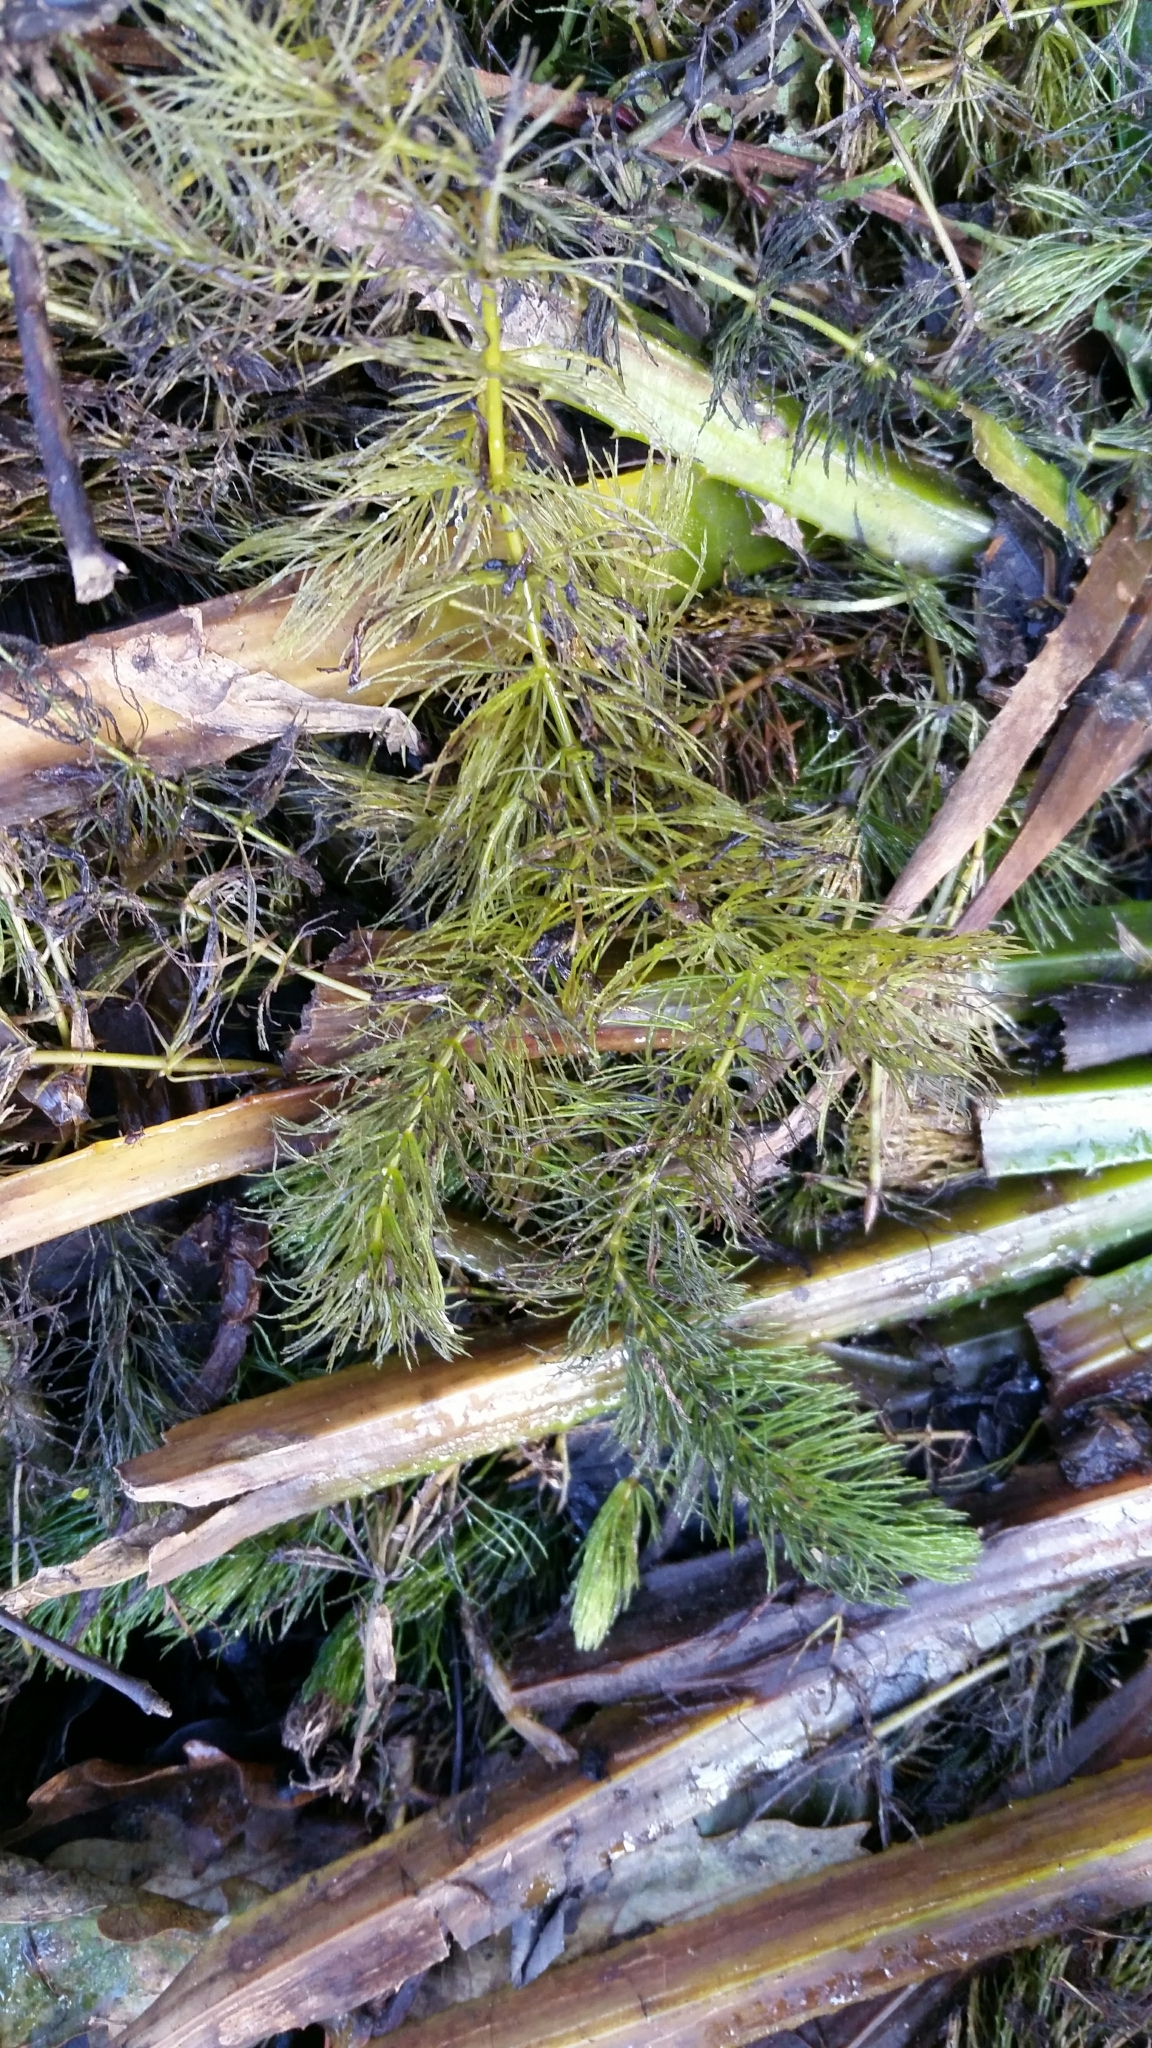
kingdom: Plantae
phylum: Tracheophyta
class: Magnoliopsida
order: Ceratophyllales
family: Ceratophyllaceae
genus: Ceratophyllum
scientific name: Ceratophyllum demersum
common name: Rigid hornwort
